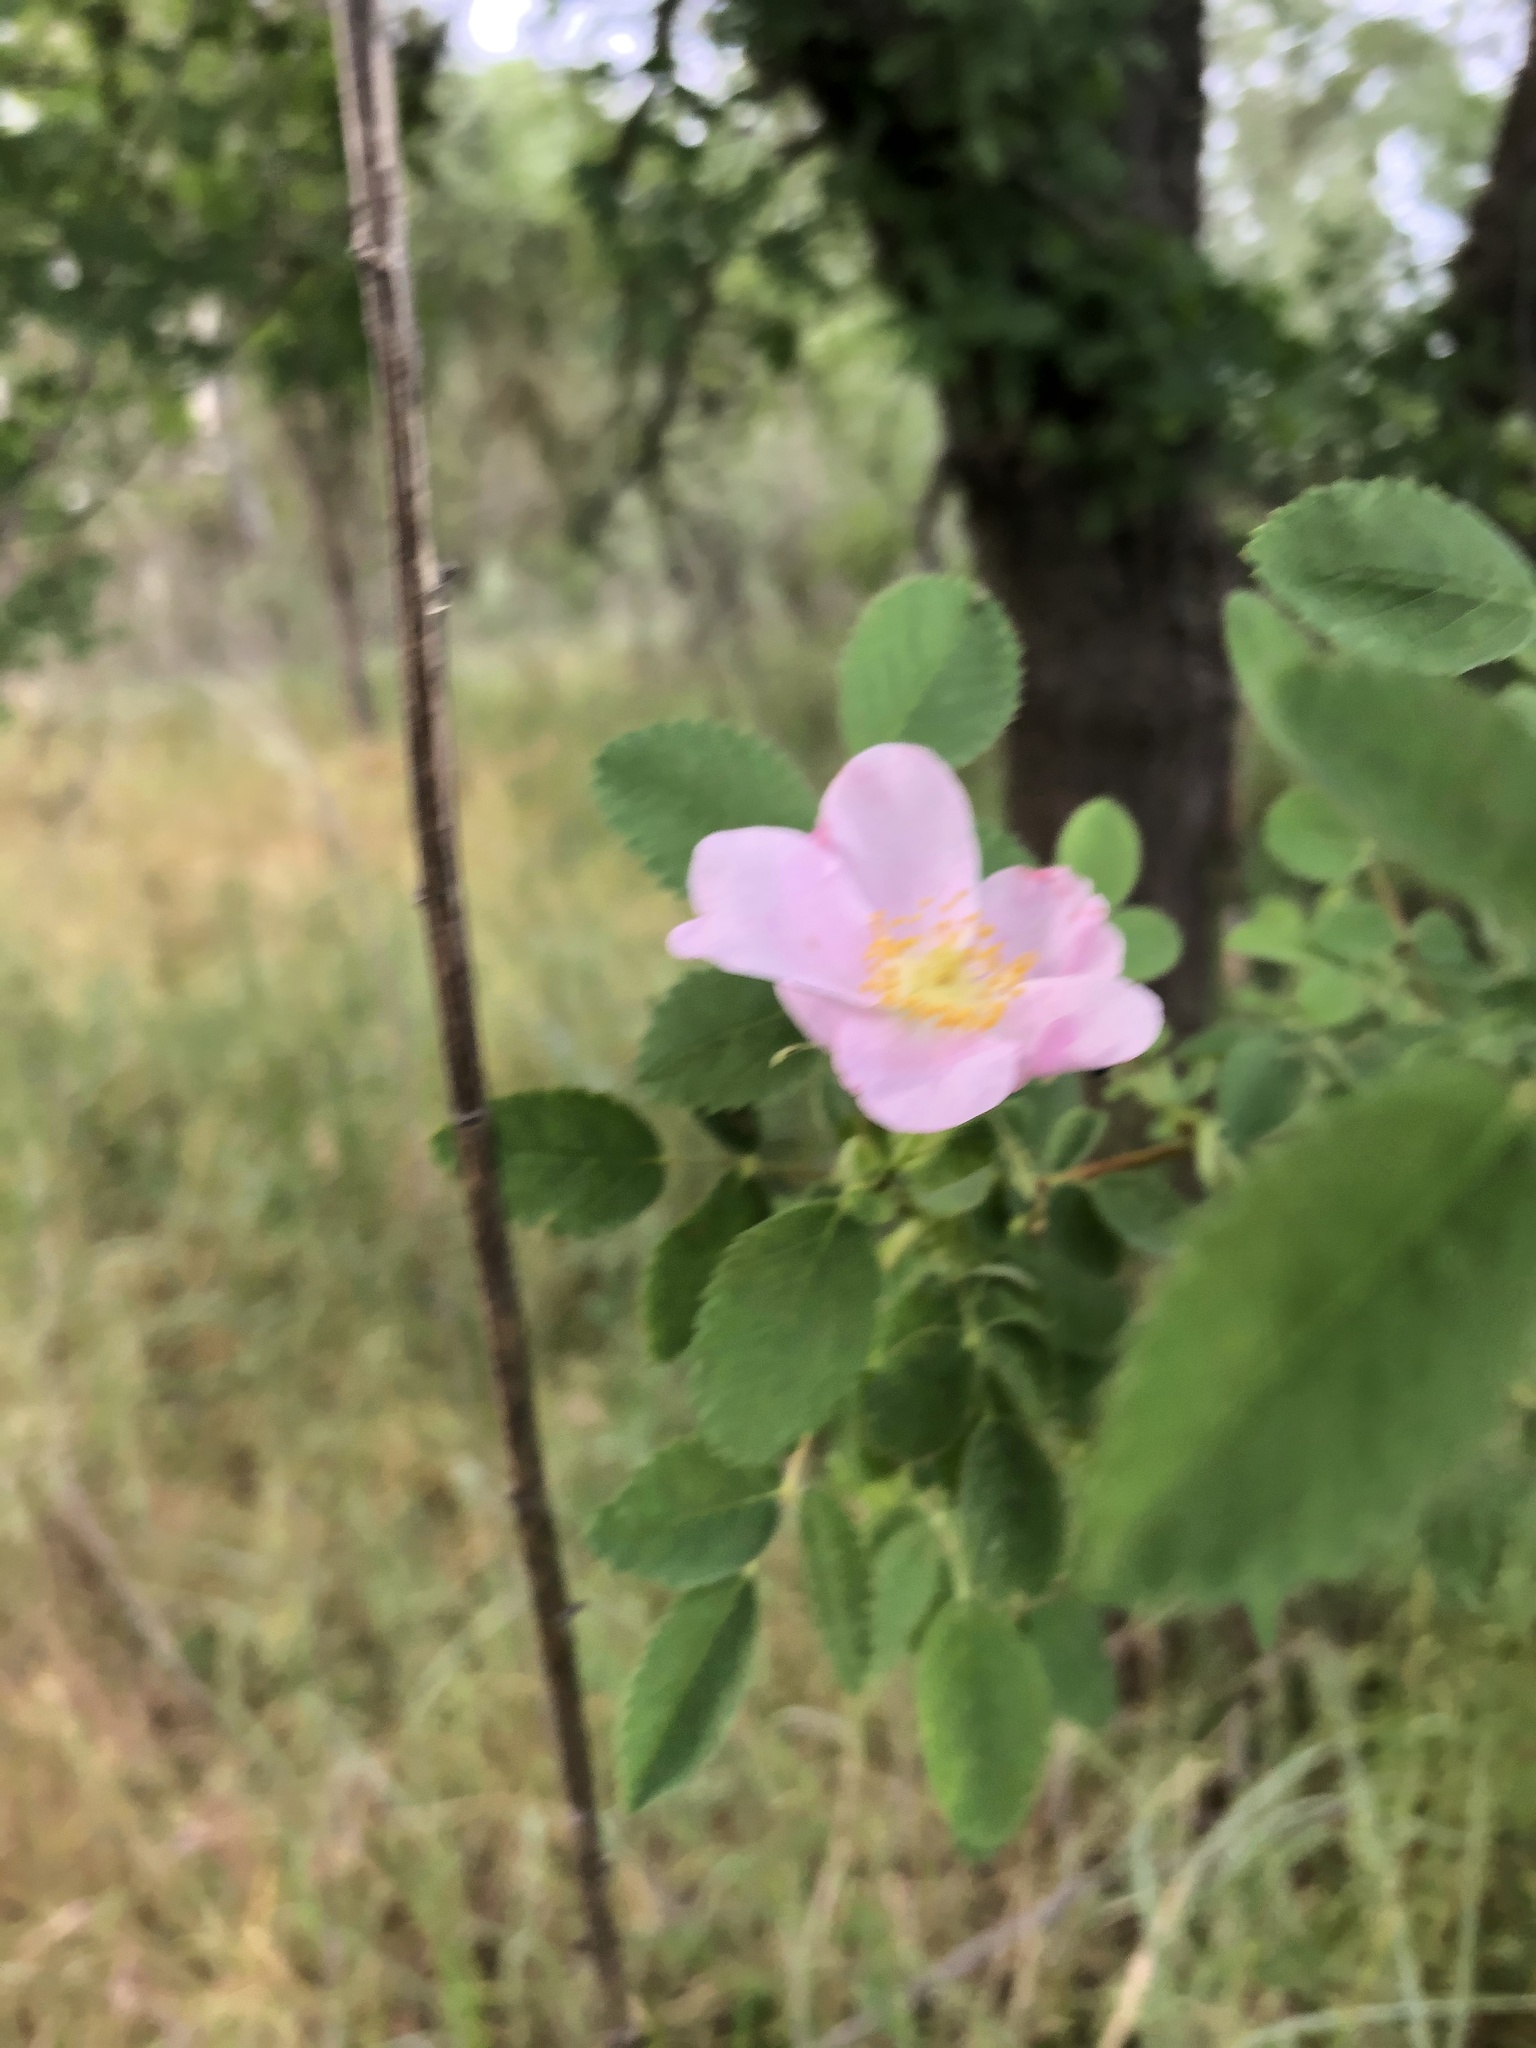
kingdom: Plantae
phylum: Tracheophyta
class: Magnoliopsida
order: Rosales
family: Rosaceae
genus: Rosa
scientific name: Rosa californica
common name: California rose
